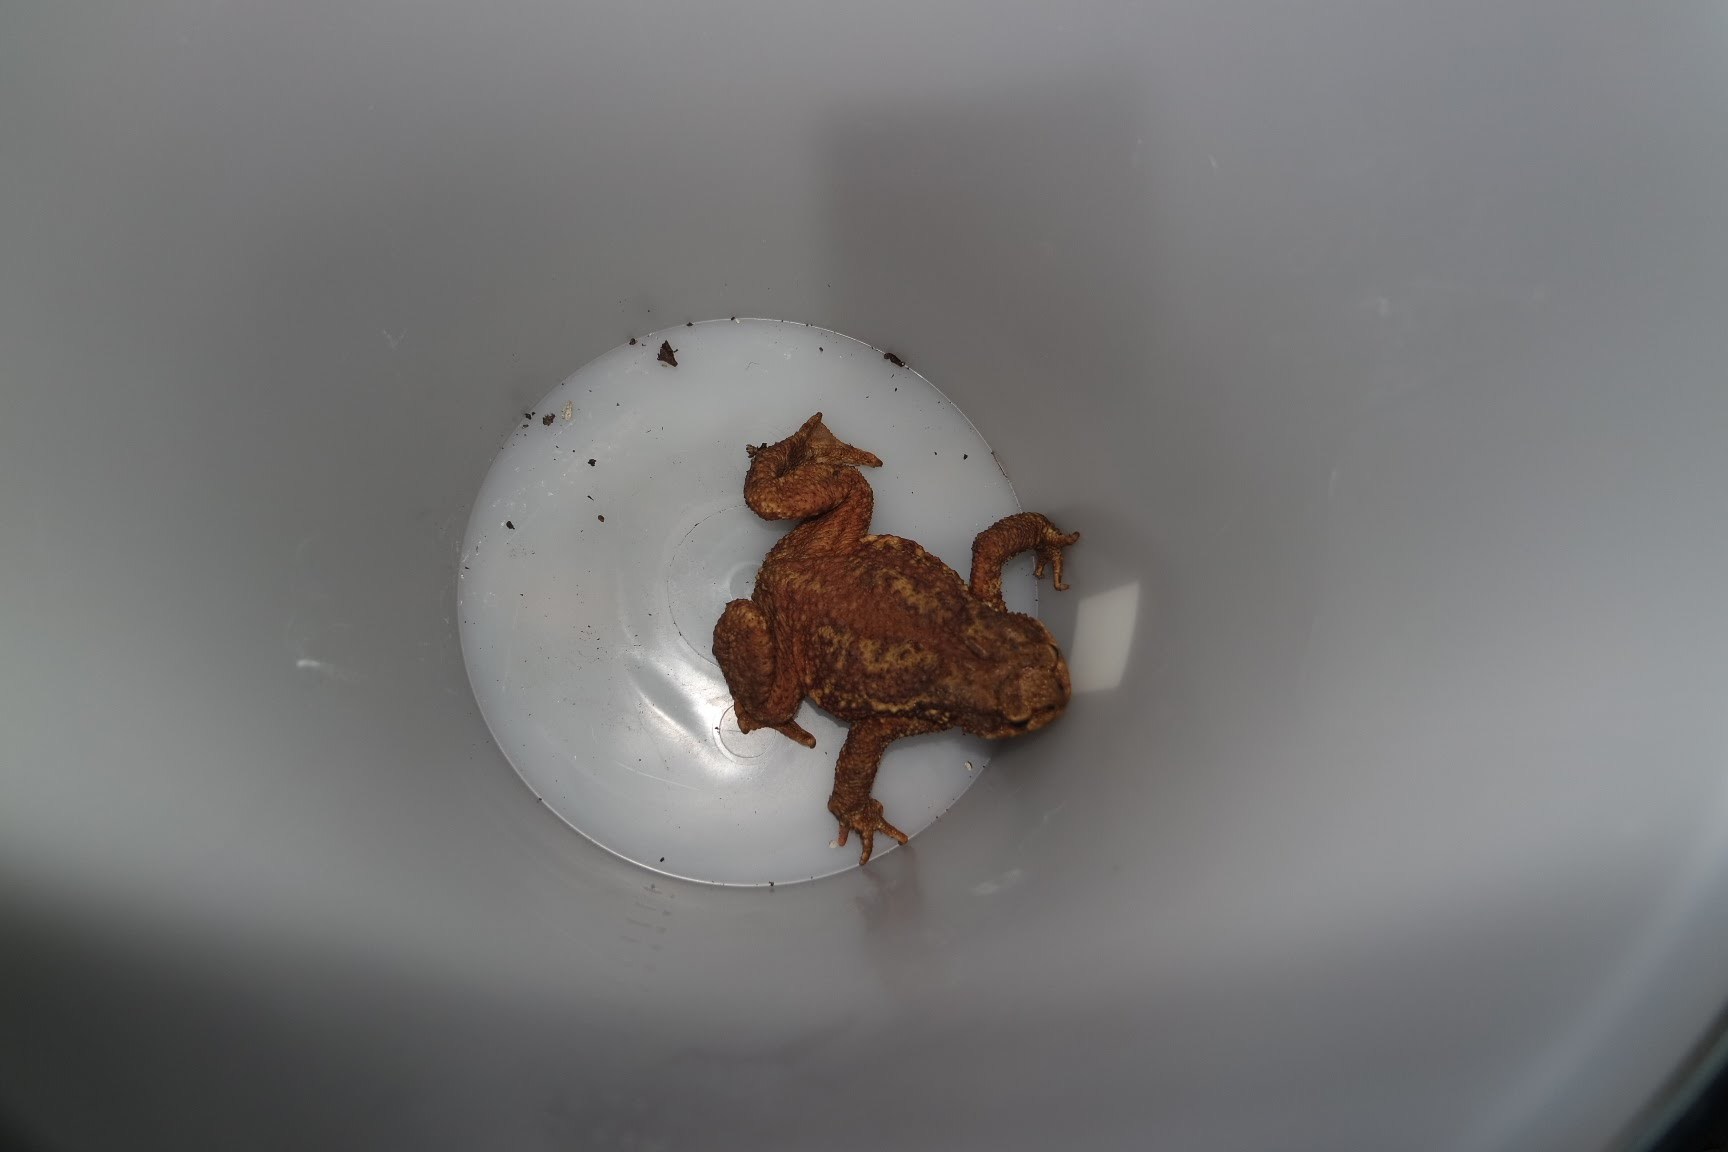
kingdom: Animalia
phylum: Chordata
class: Amphibia
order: Anura
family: Bufonidae
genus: Bufo
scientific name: Bufo bufo
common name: Common toad
